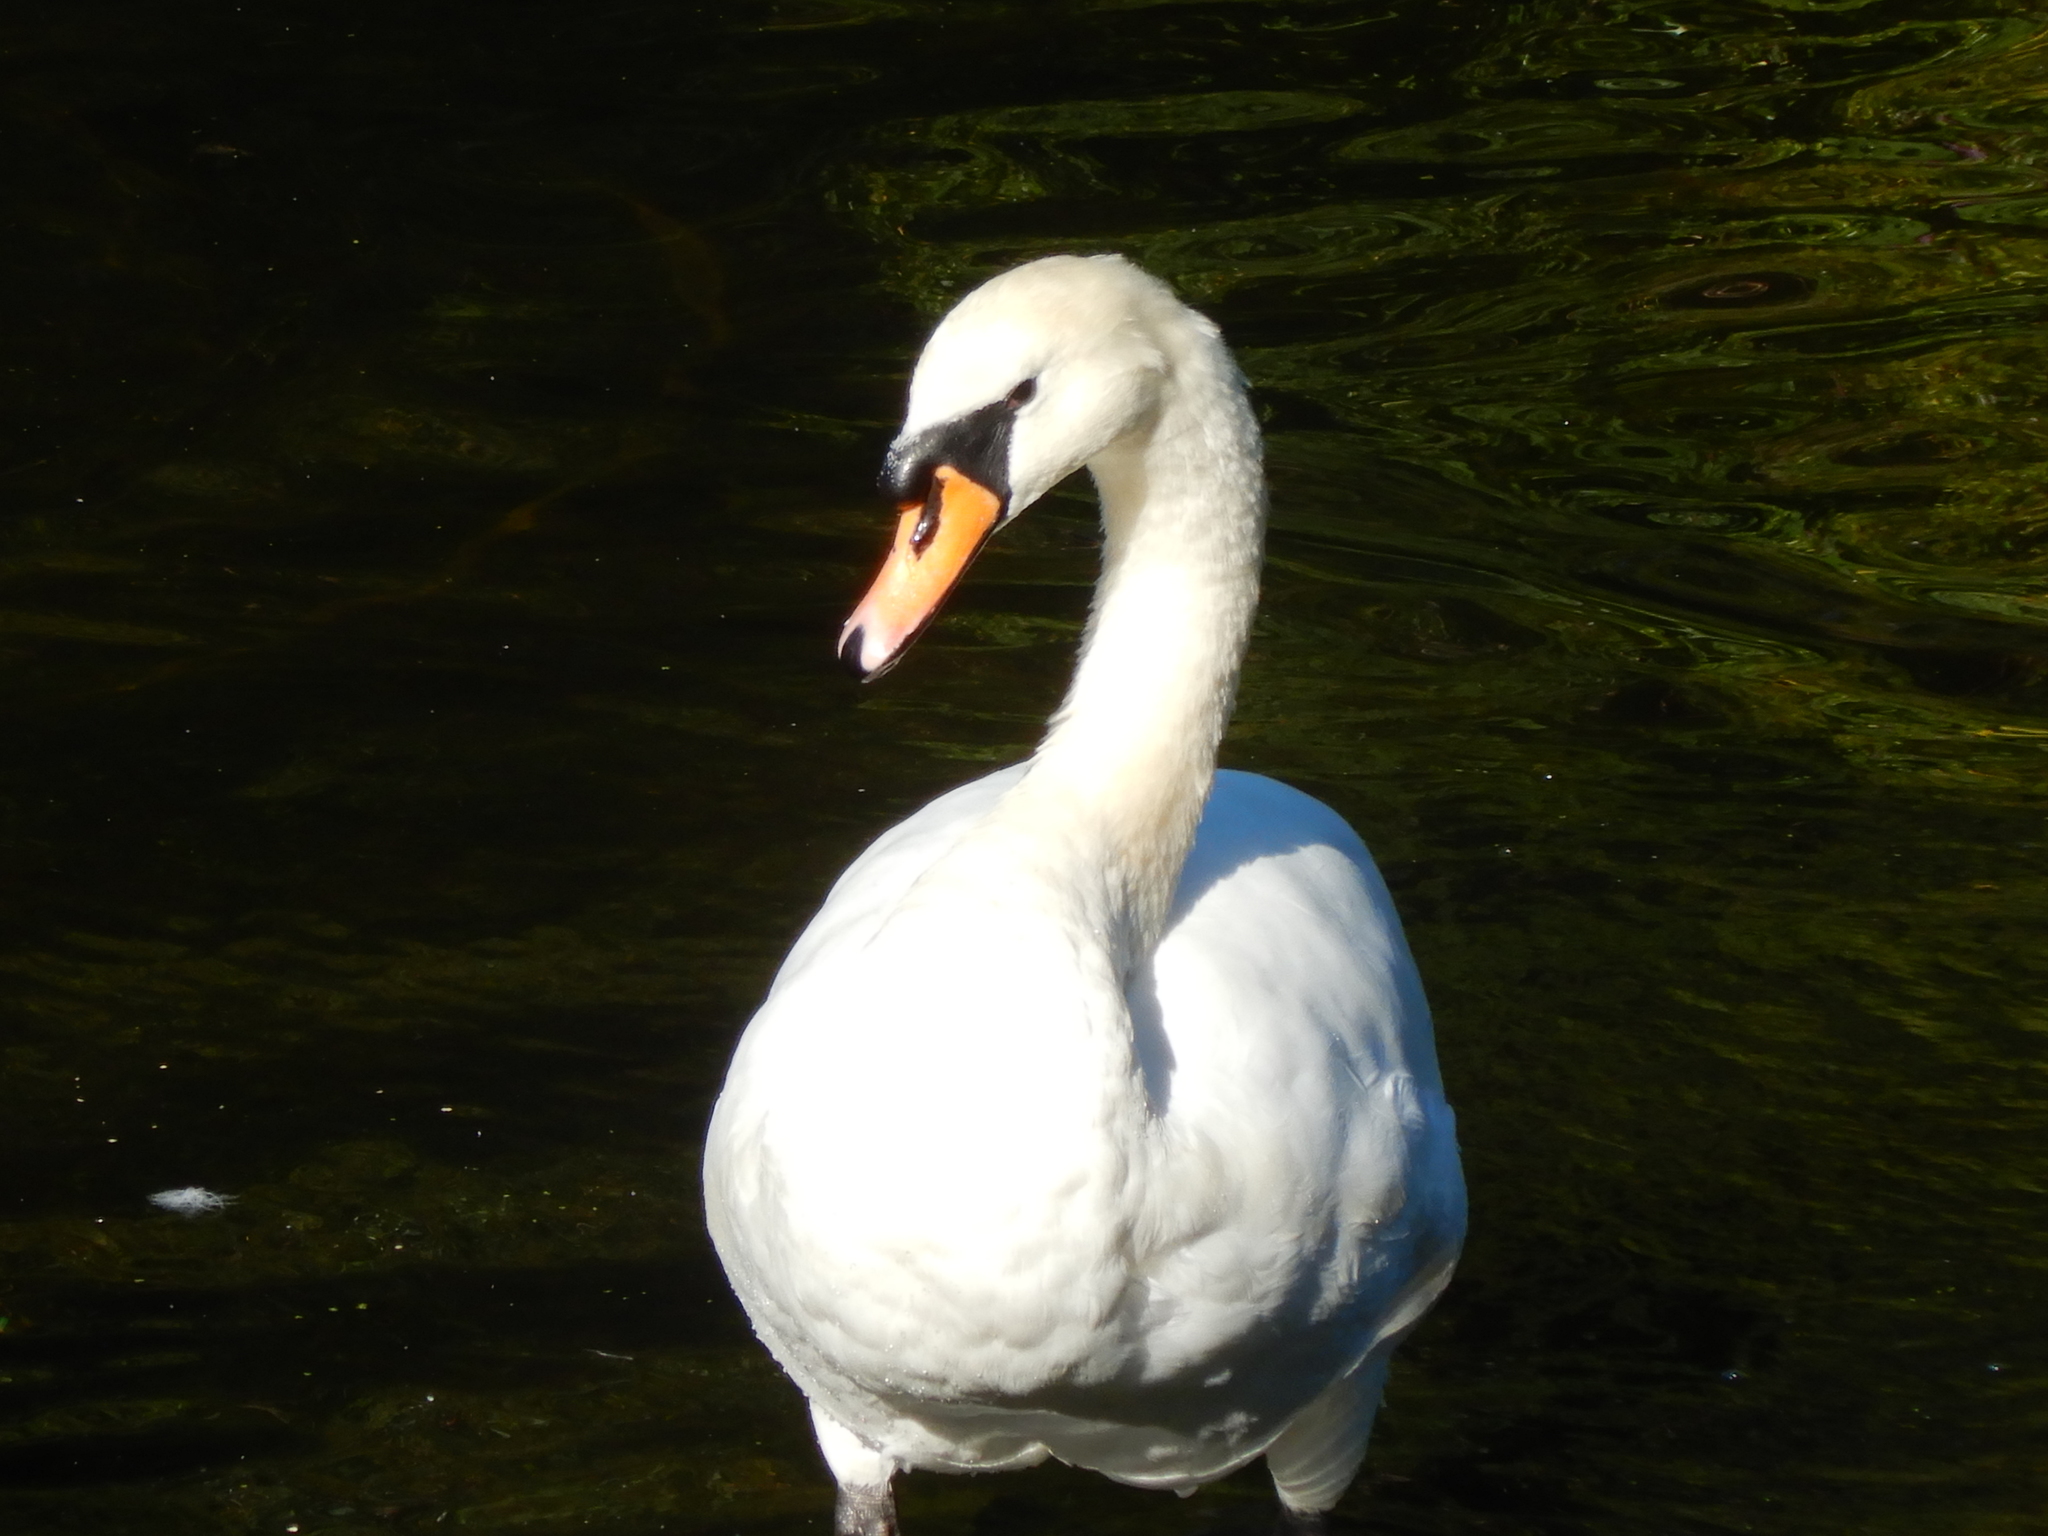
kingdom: Animalia
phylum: Chordata
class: Aves
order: Anseriformes
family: Anatidae
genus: Cygnus
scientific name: Cygnus olor
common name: Mute swan
